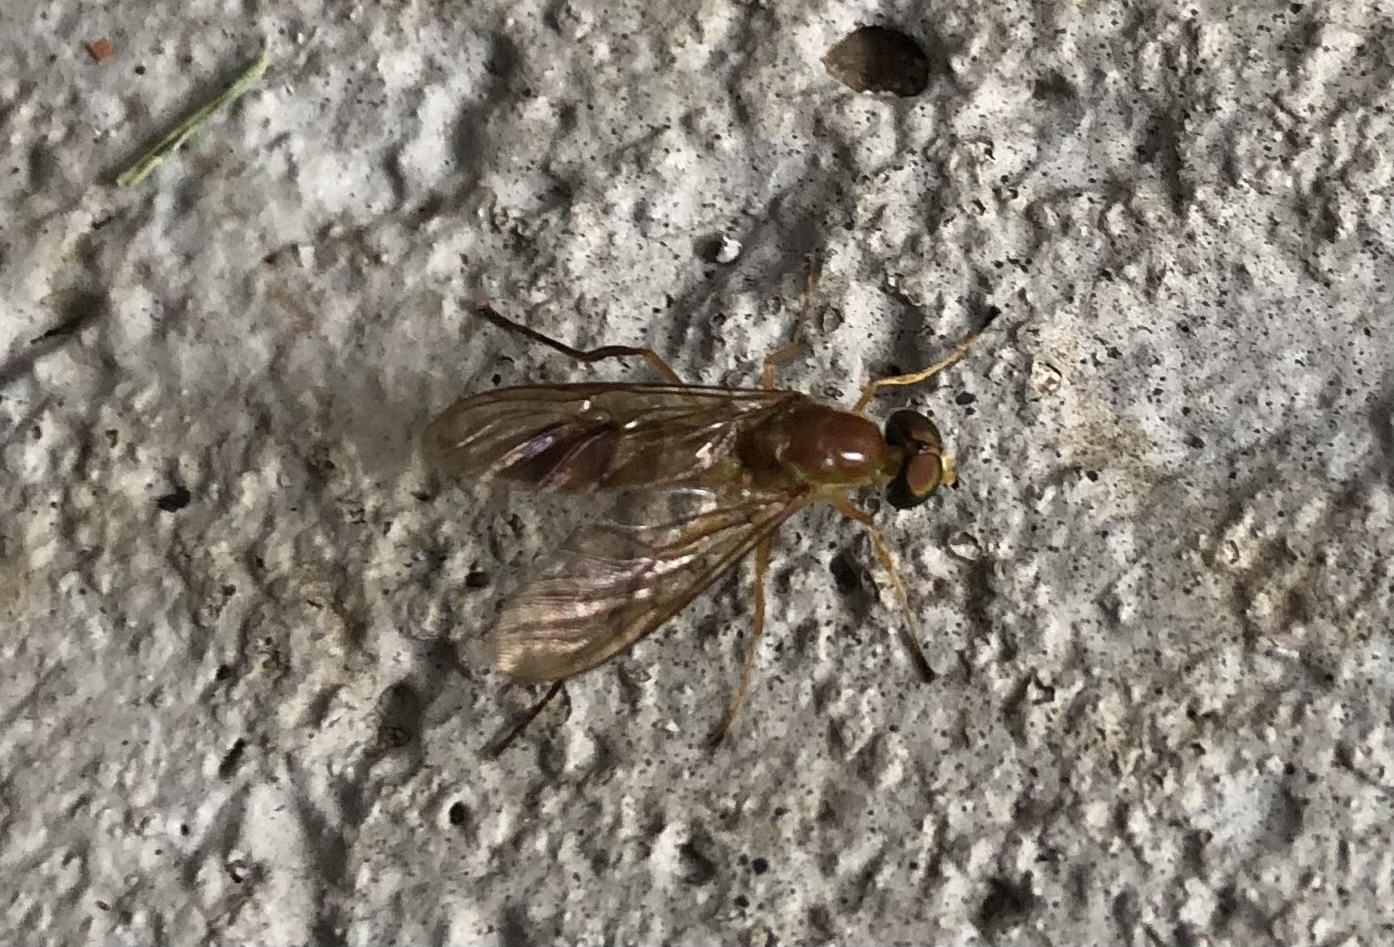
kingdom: Animalia
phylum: Arthropoda
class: Insecta
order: Diptera
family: Stratiomyidae
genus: Ptecticus
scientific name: Ptecticus trivittatus
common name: Compost fly
